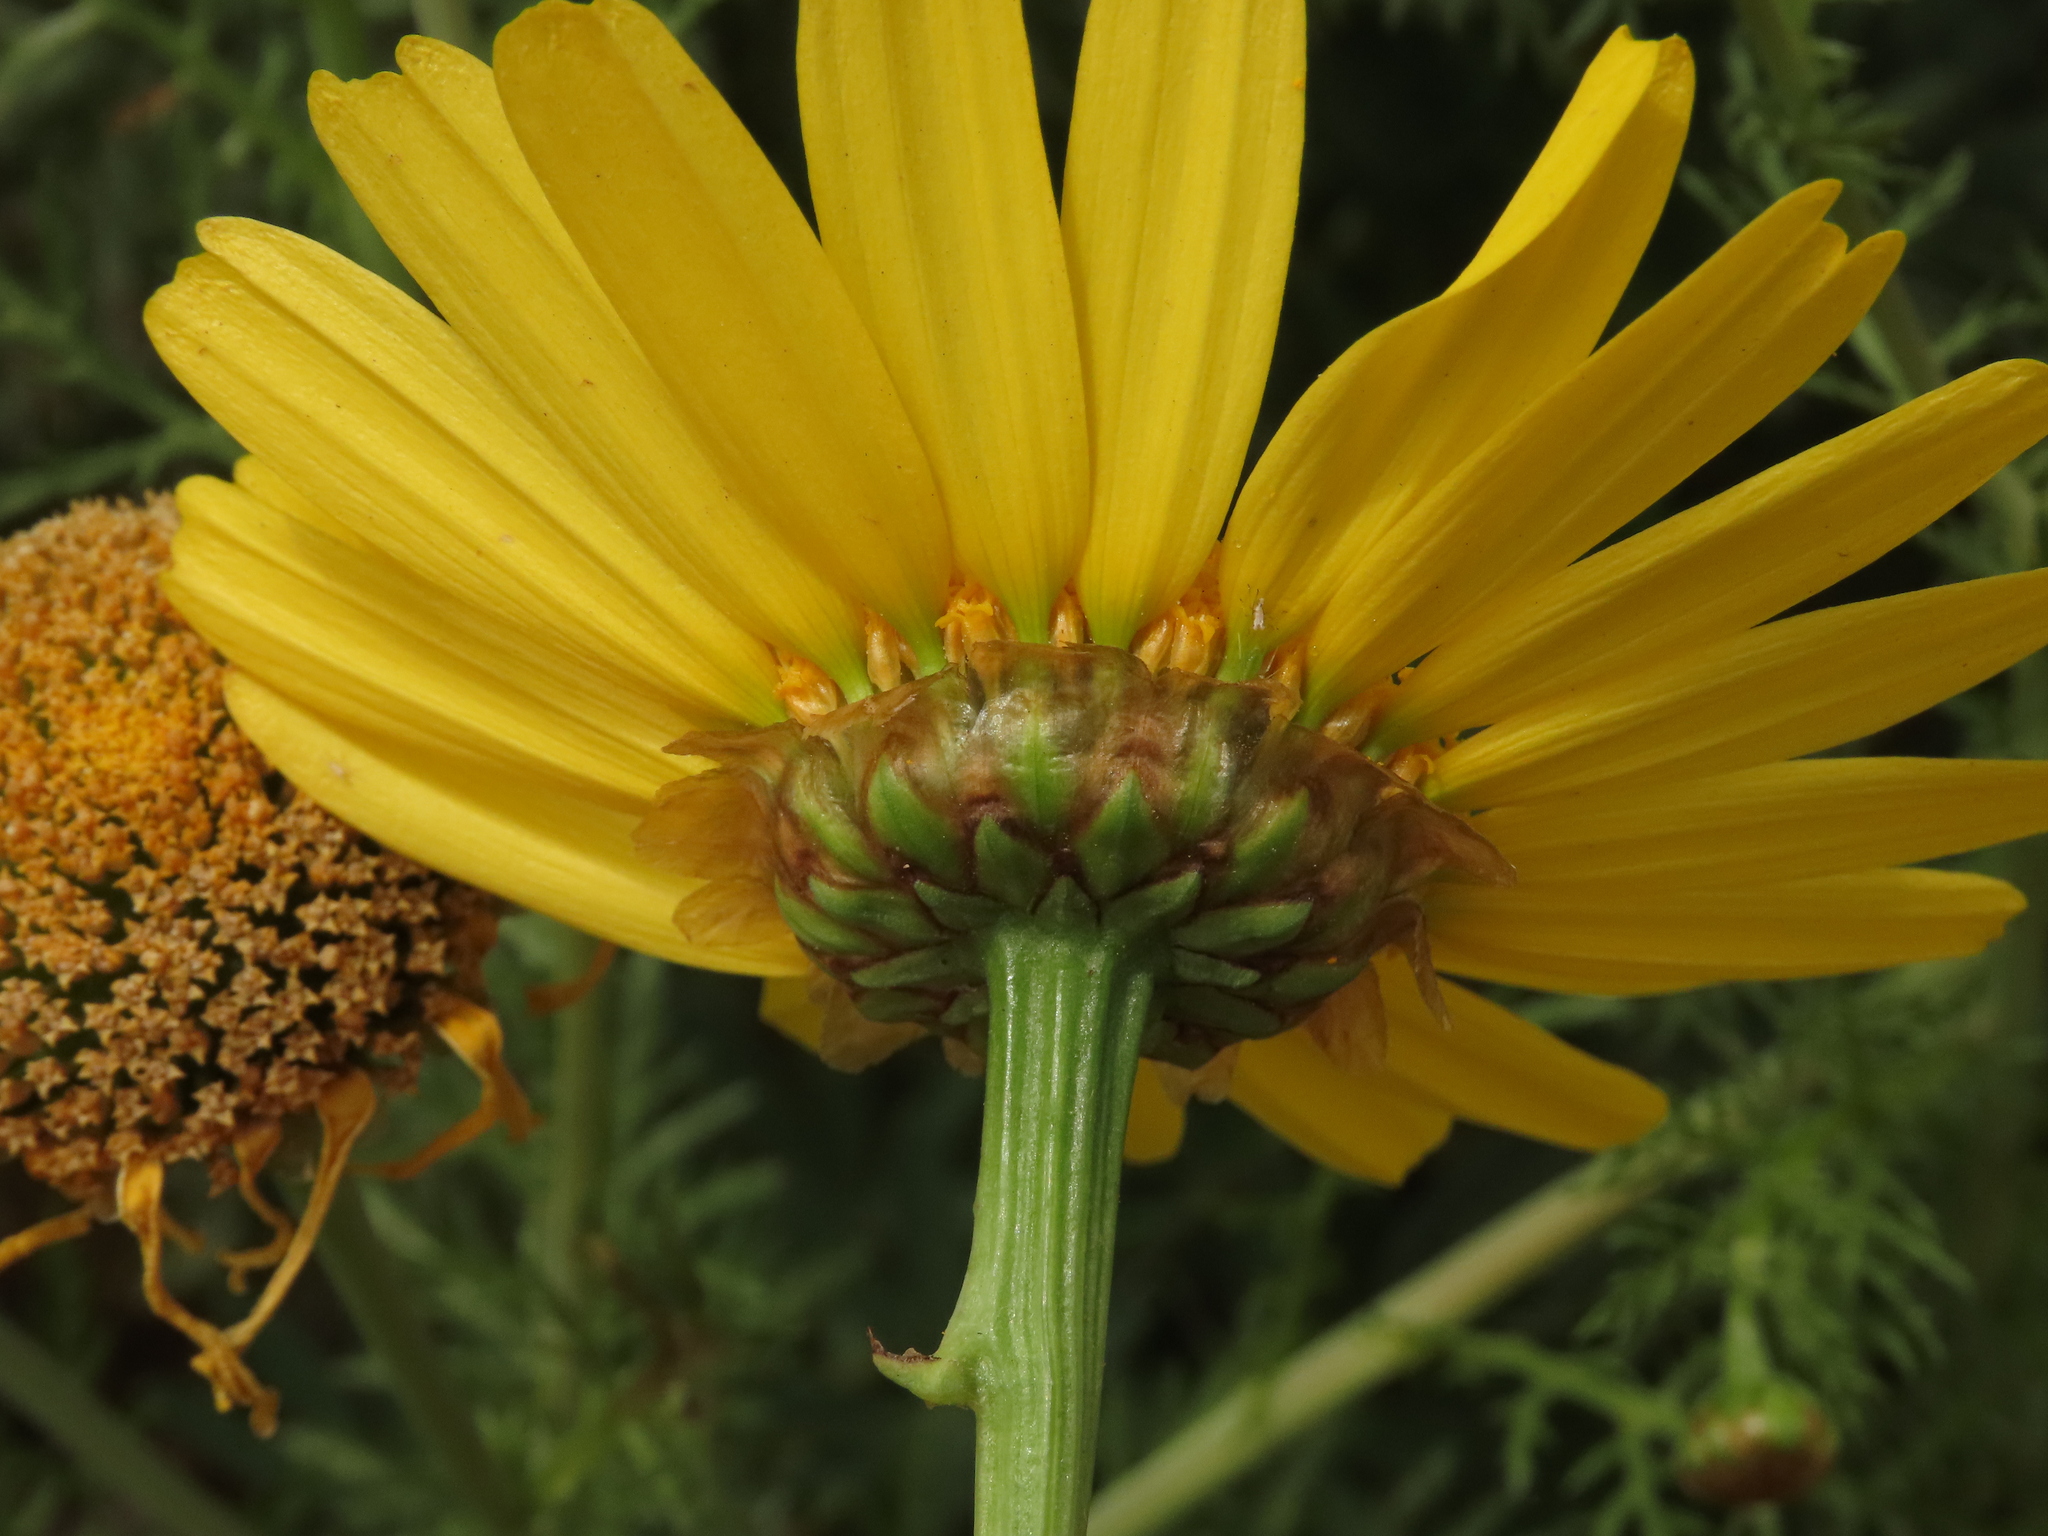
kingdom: Plantae
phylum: Tracheophyta
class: Magnoliopsida
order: Asterales
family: Asteraceae
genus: Glebionis
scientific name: Glebionis coronaria
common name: Crowndaisy
